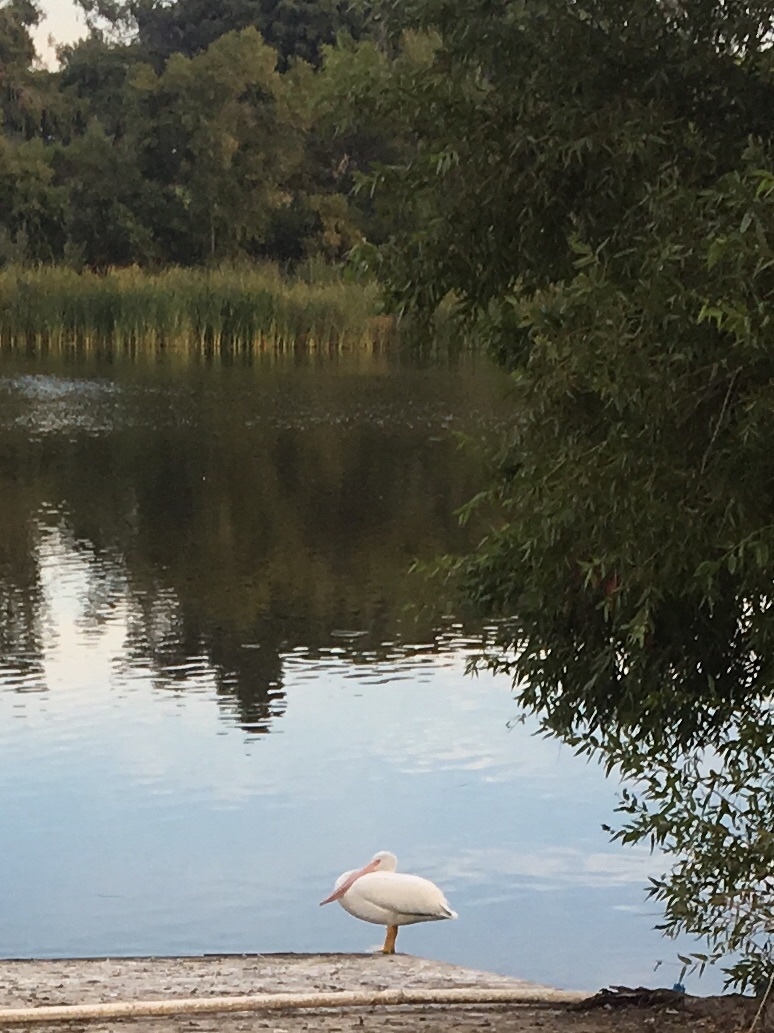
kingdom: Animalia
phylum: Chordata
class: Aves
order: Pelecaniformes
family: Pelecanidae
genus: Pelecanus
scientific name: Pelecanus erythrorhynchos
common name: American white pelican
